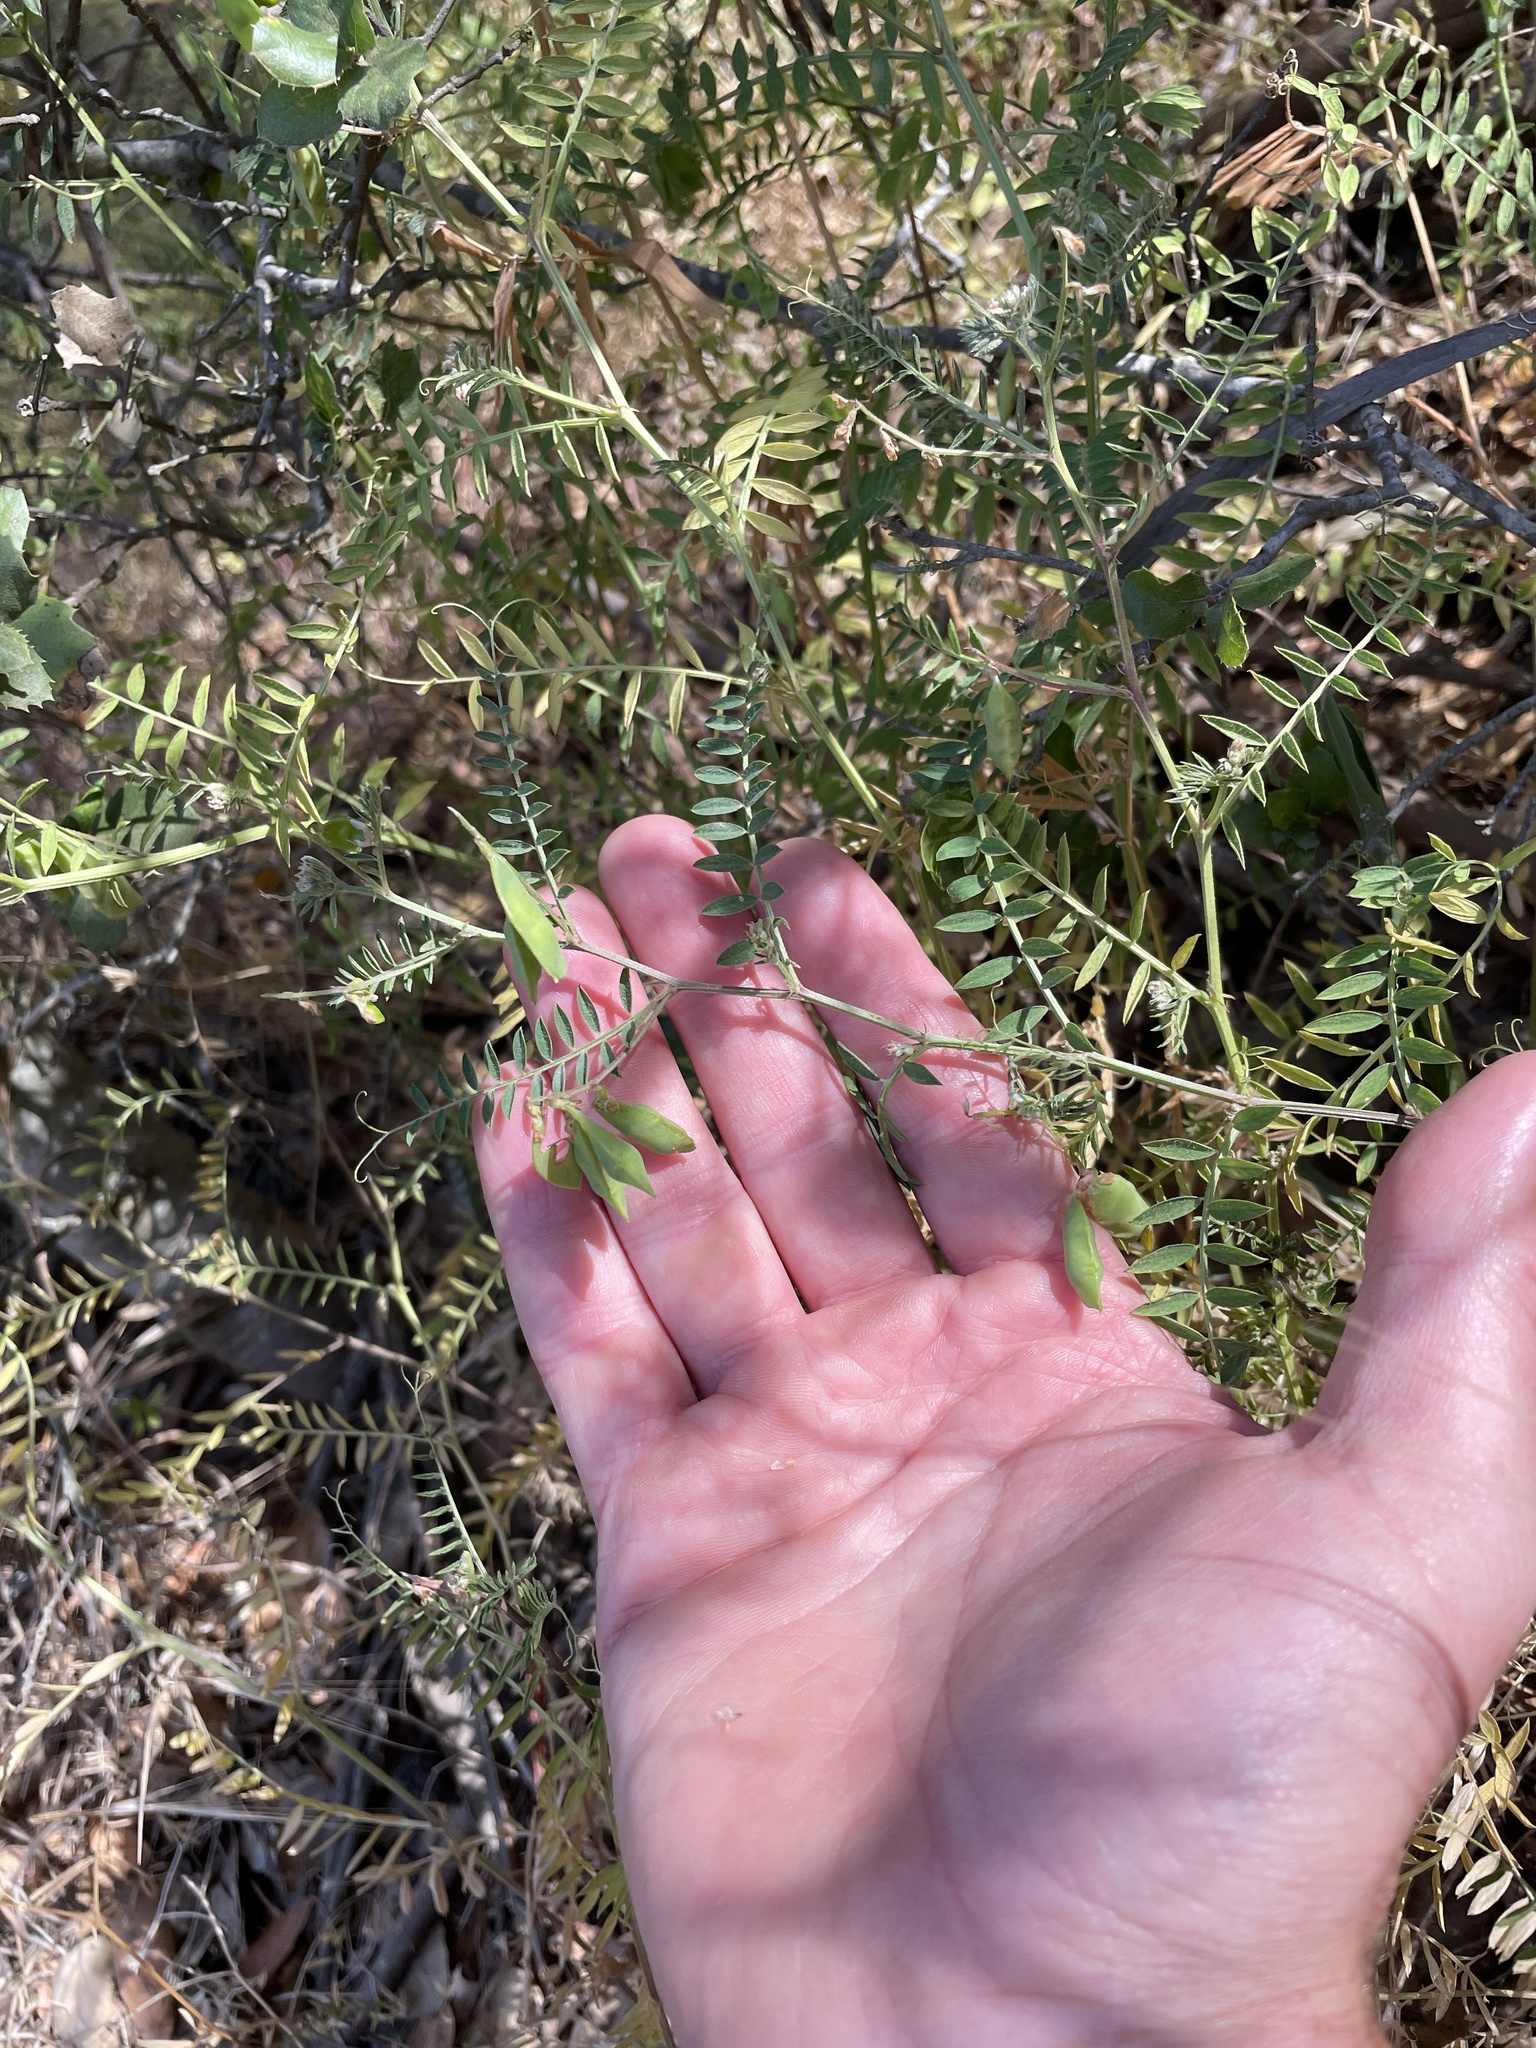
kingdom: Plantae
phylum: Tracheophyta
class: Magnoliopsida
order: Fabales
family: Fabaceae
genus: Vicia
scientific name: Vicia disperma
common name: European vetch
